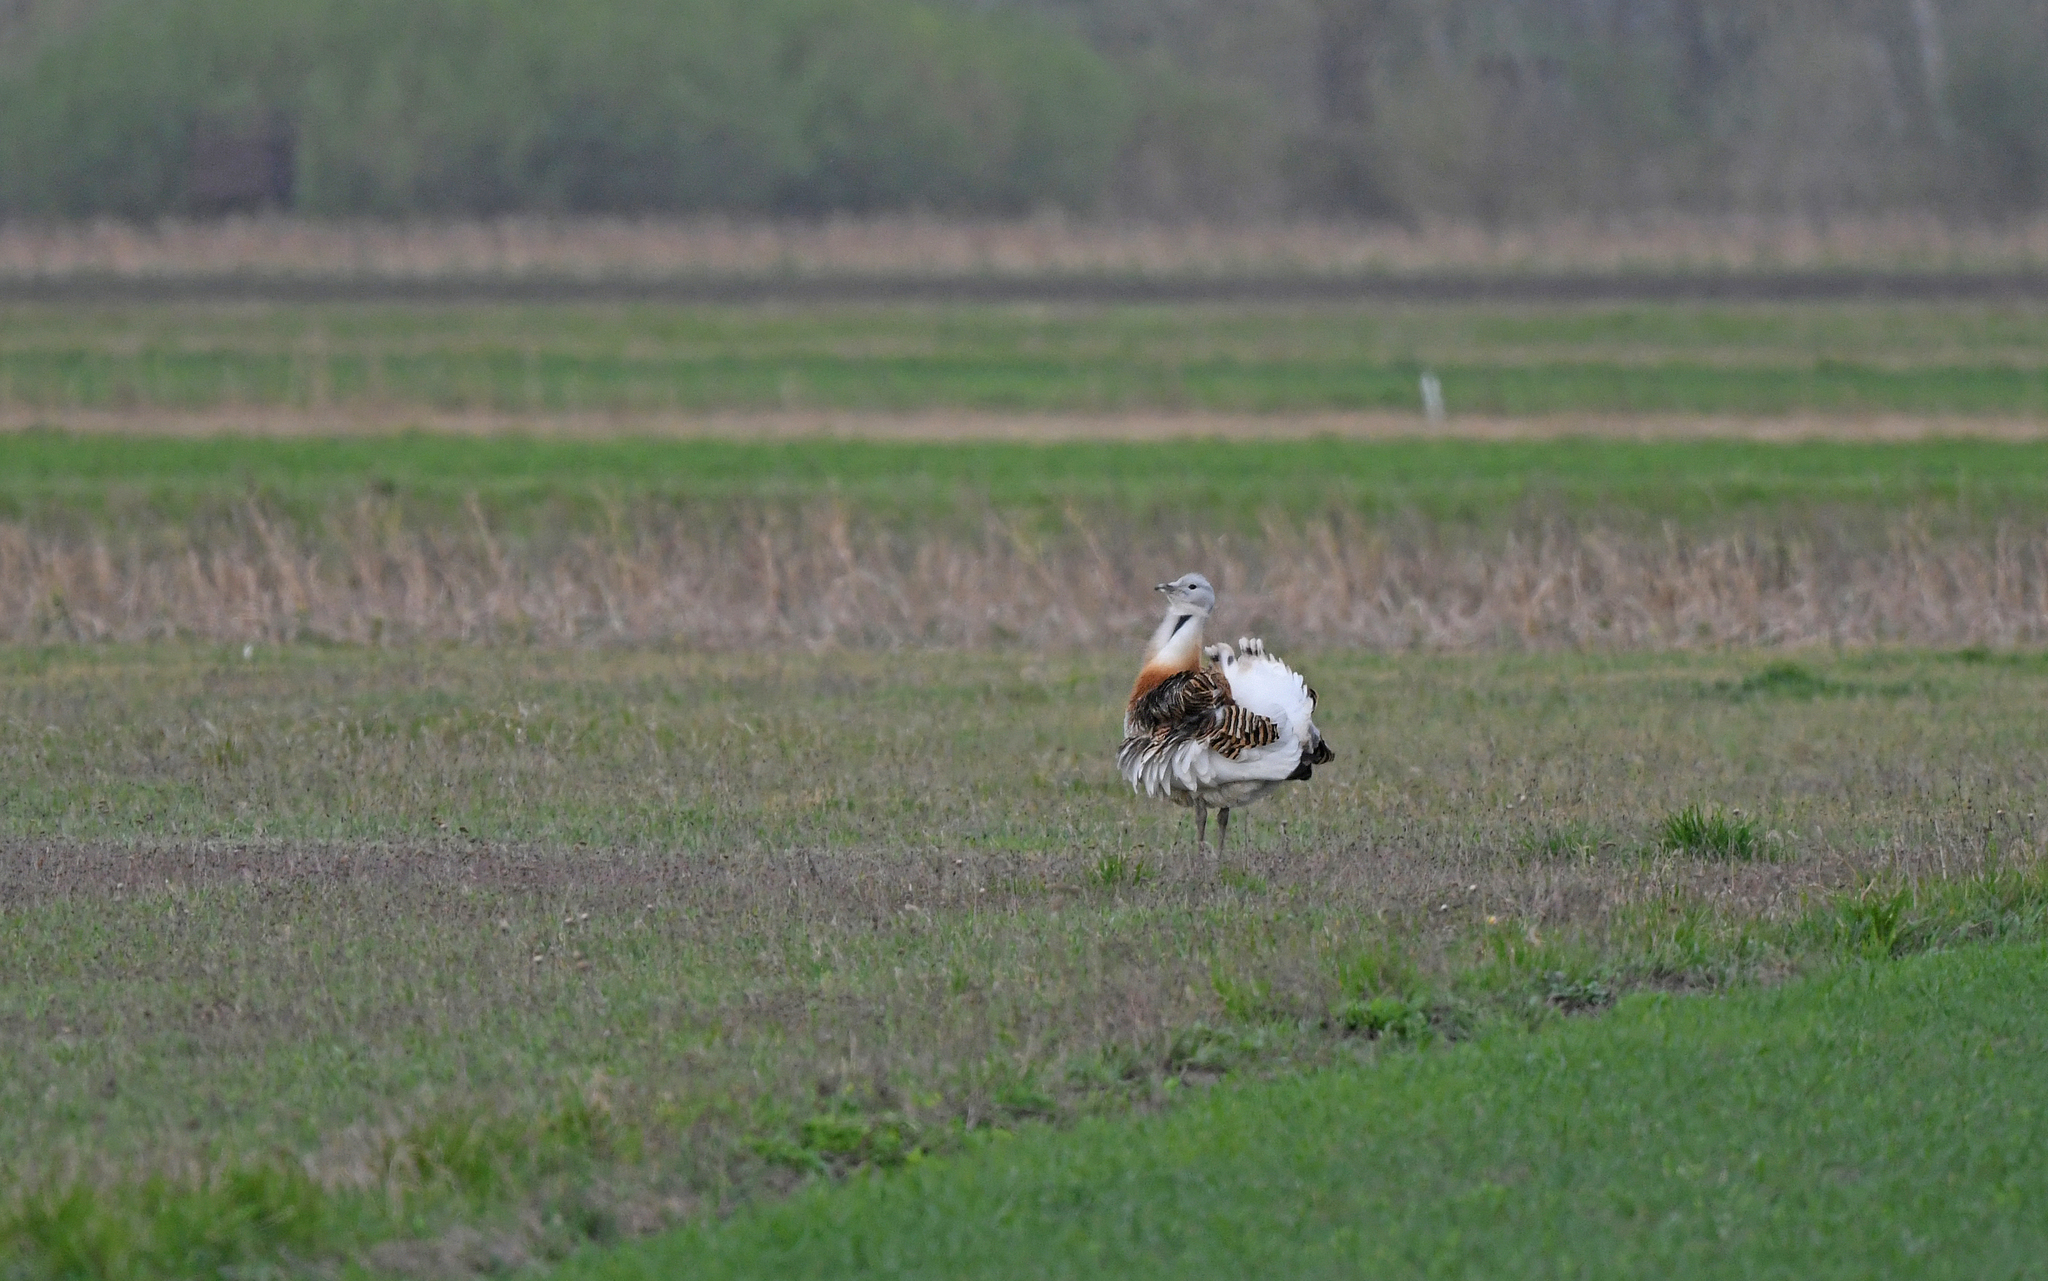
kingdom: Animalia
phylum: Chordata
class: Aves
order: Otidiformes
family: Otididae
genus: Otis
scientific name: Otis tarda
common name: Great bustard
